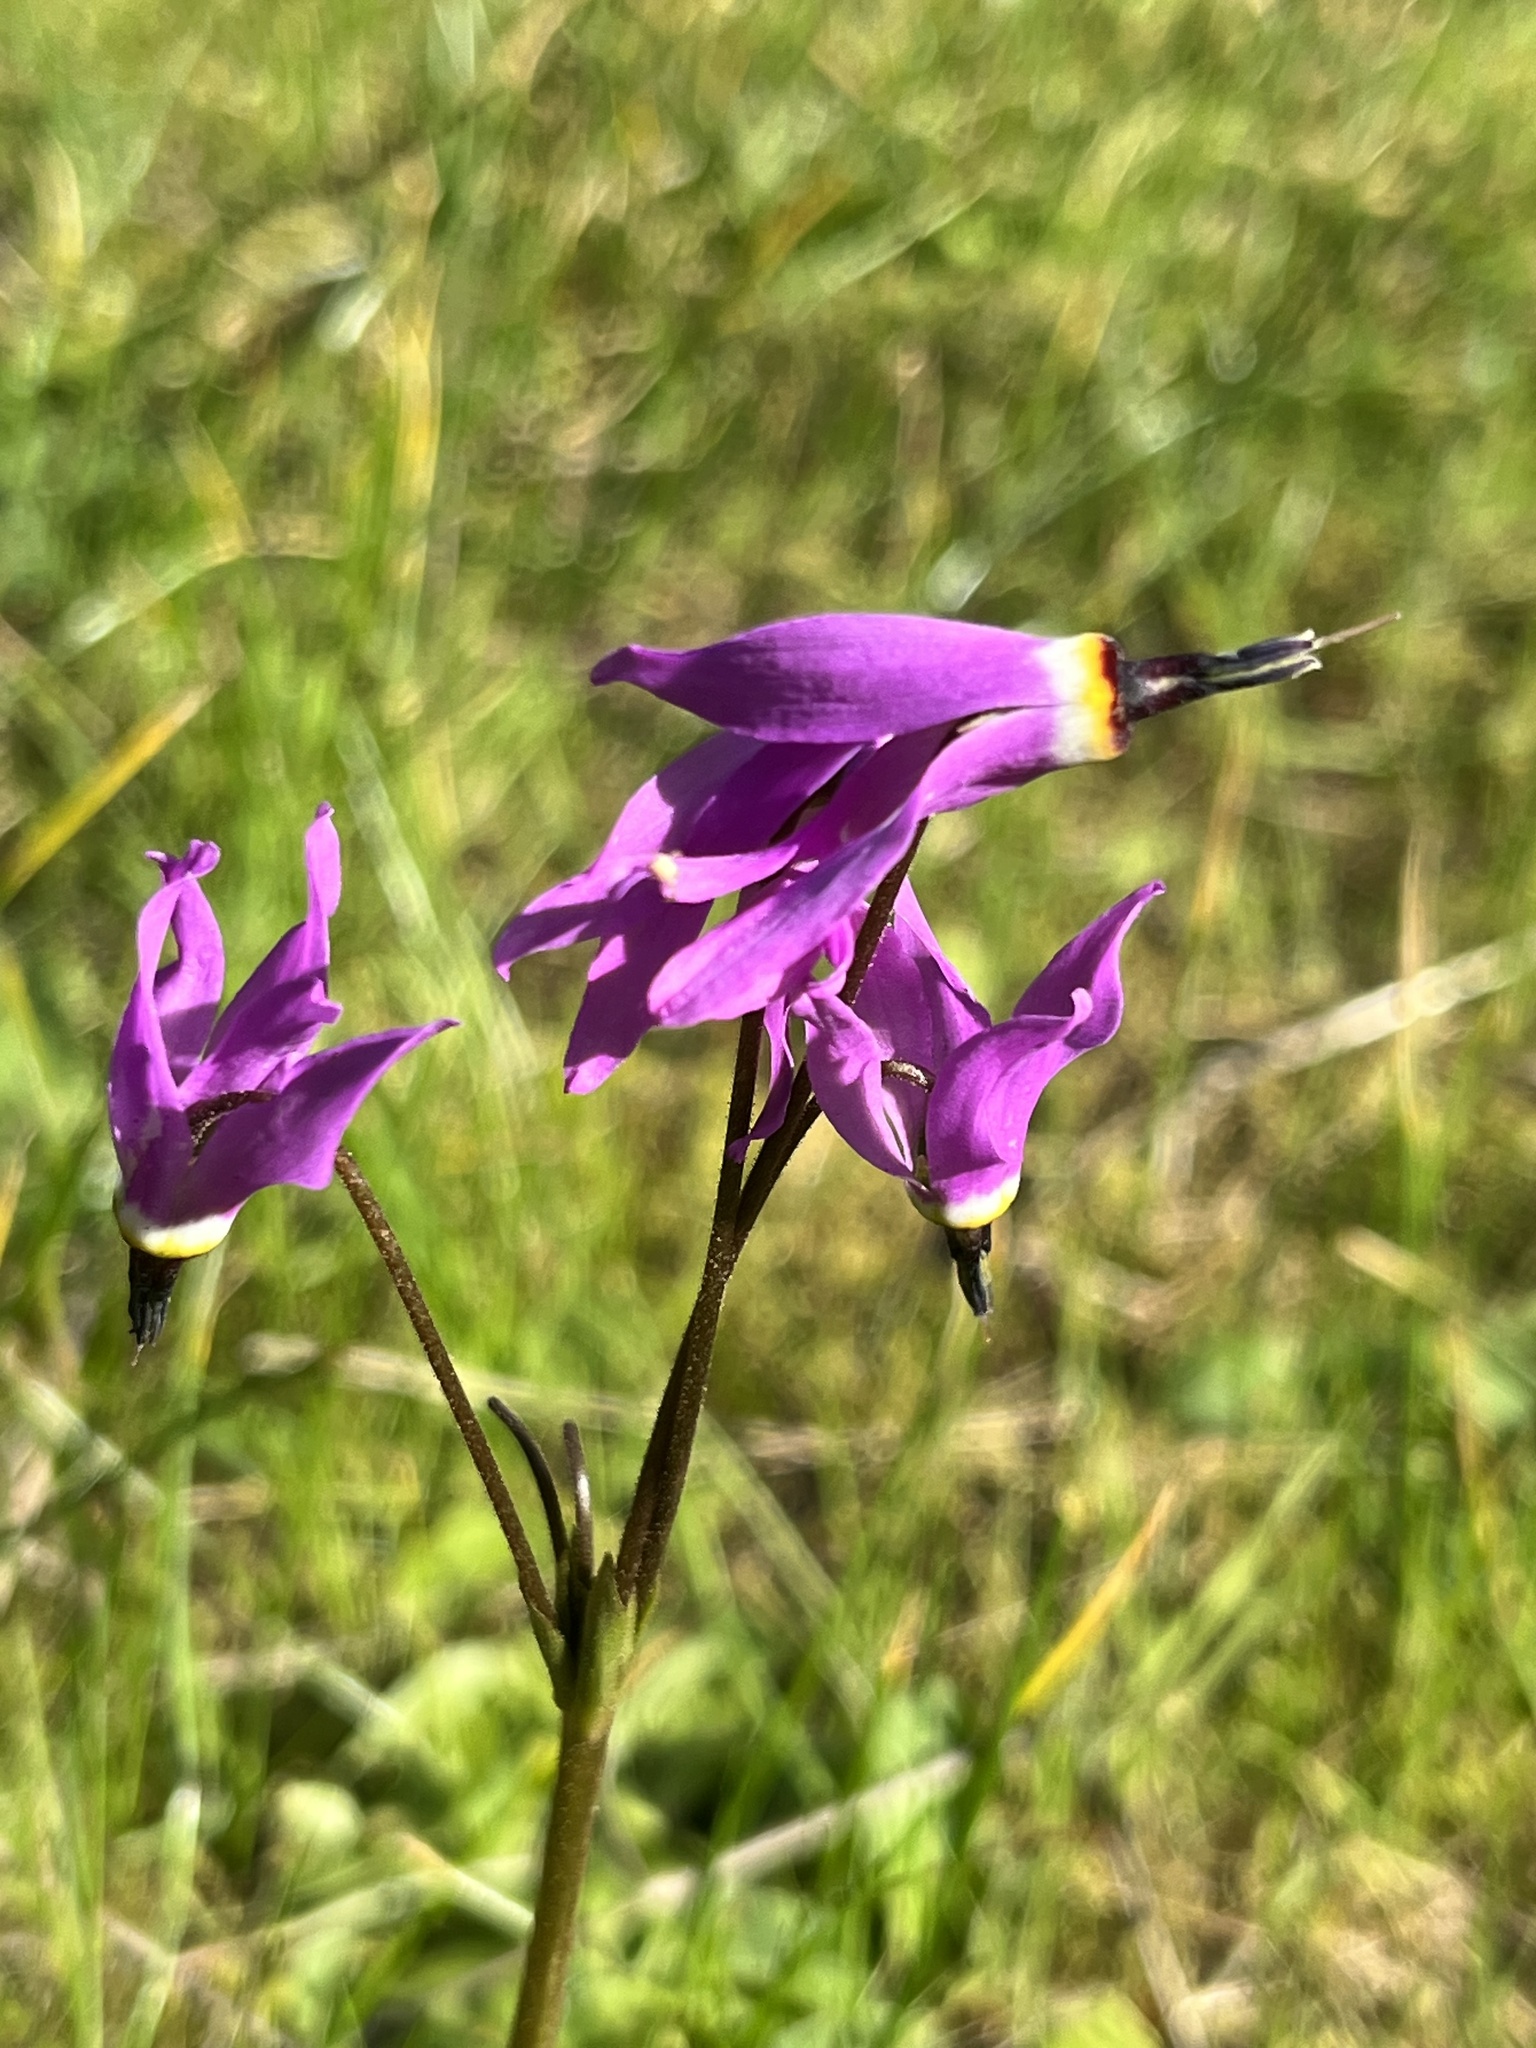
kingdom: Plantae
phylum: Tracheophyta
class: Magnoliopsida
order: Ericales
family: Primulaceae
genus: Dodecatheon
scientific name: Dodecatheon hendersonii
